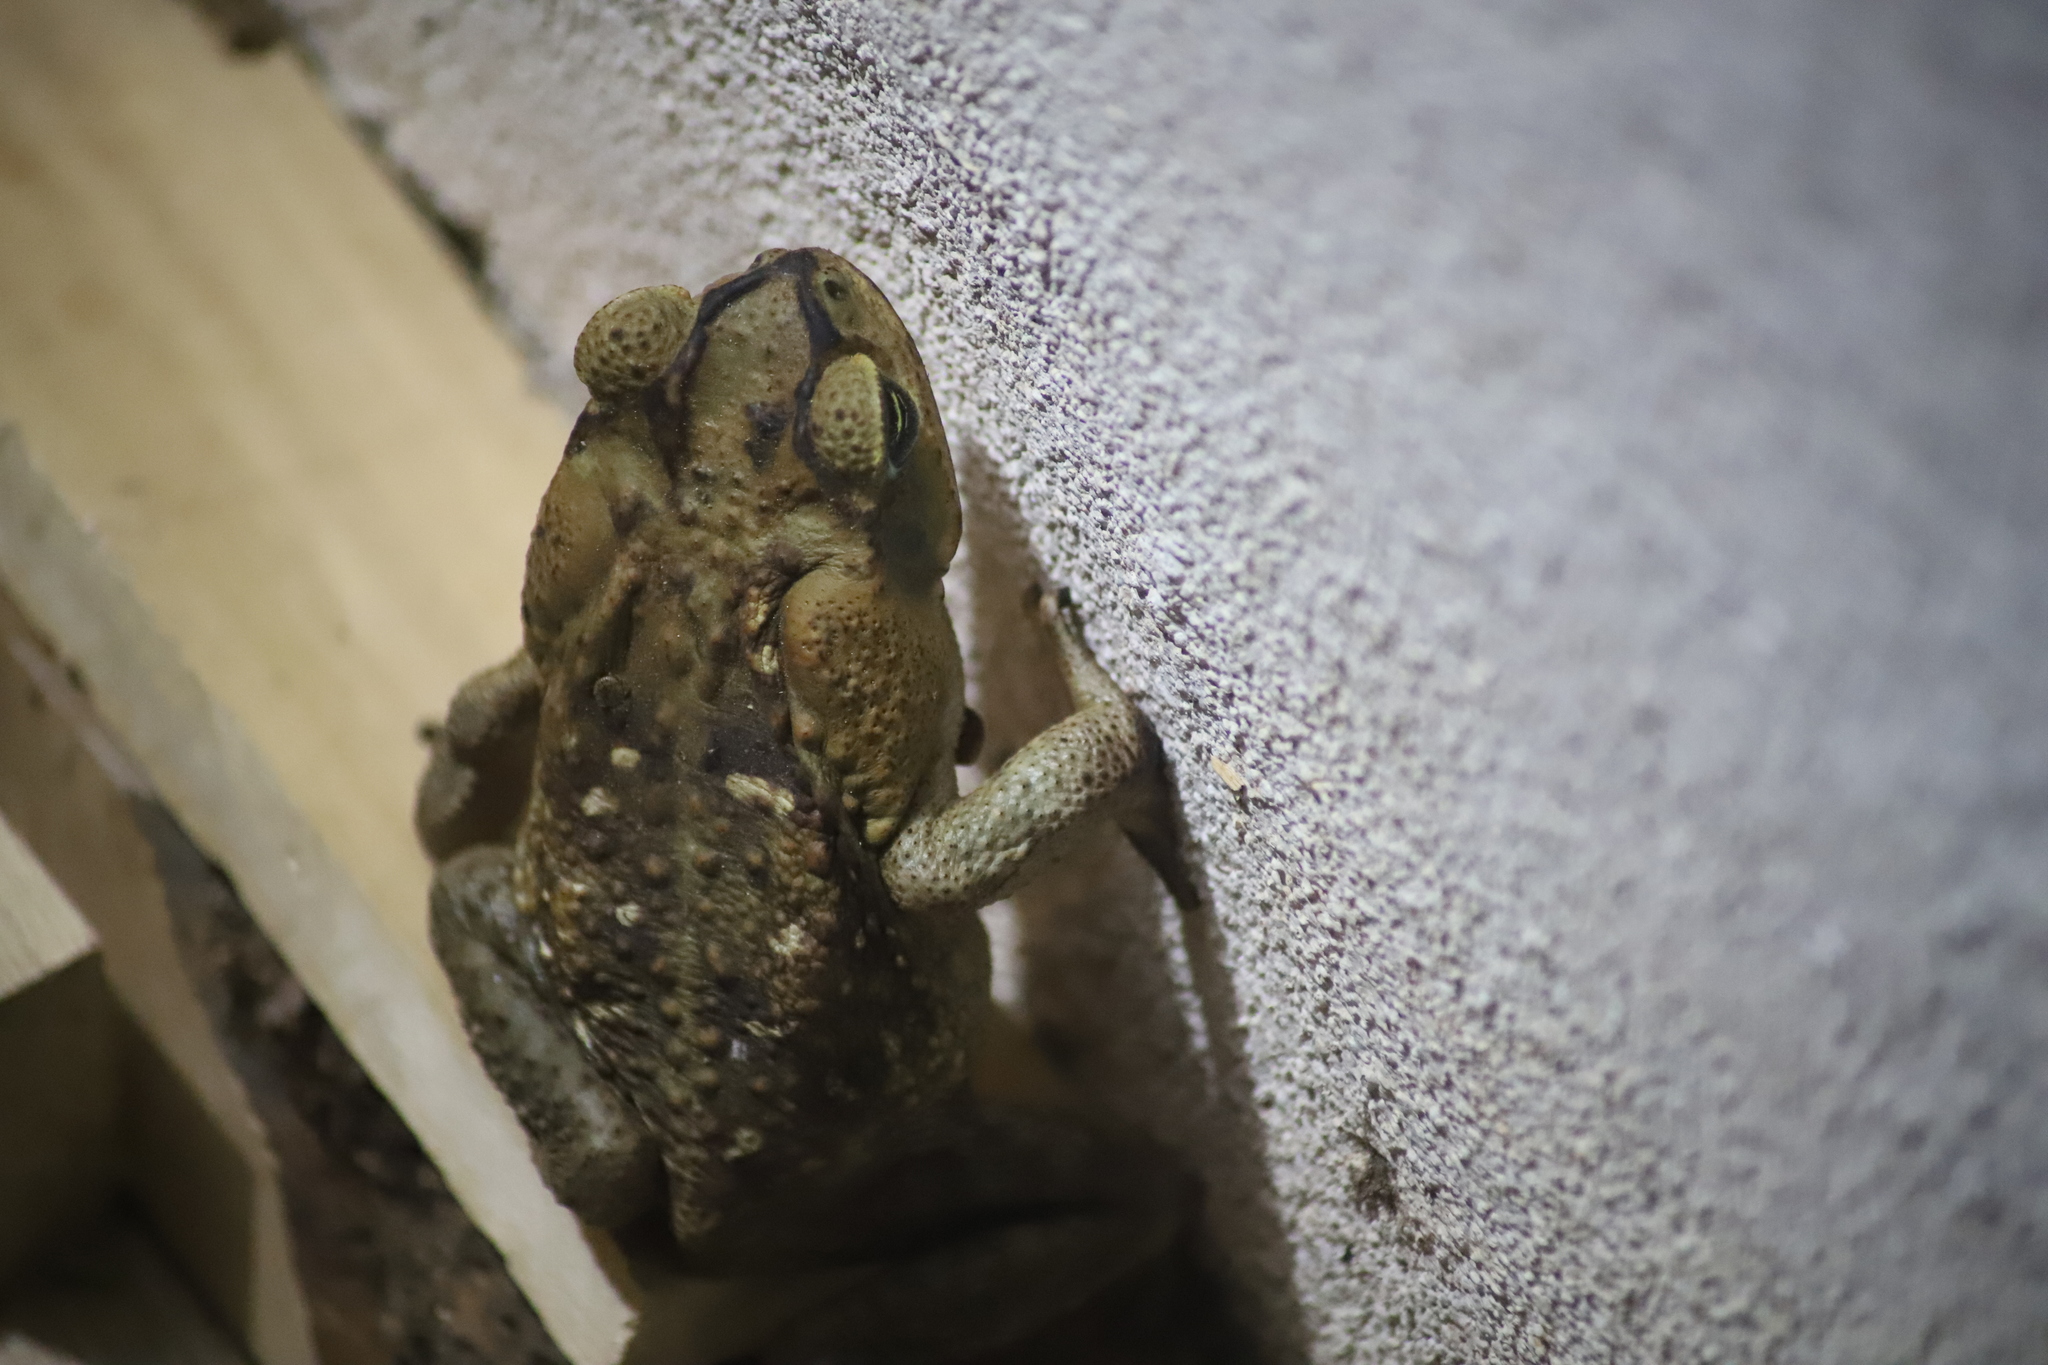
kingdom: Animalia
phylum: Chordata
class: Amphibia
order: Anura
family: Bufonidae
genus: Rhinella
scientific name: Rhinella horribilis
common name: Mesoamerican cane toad
